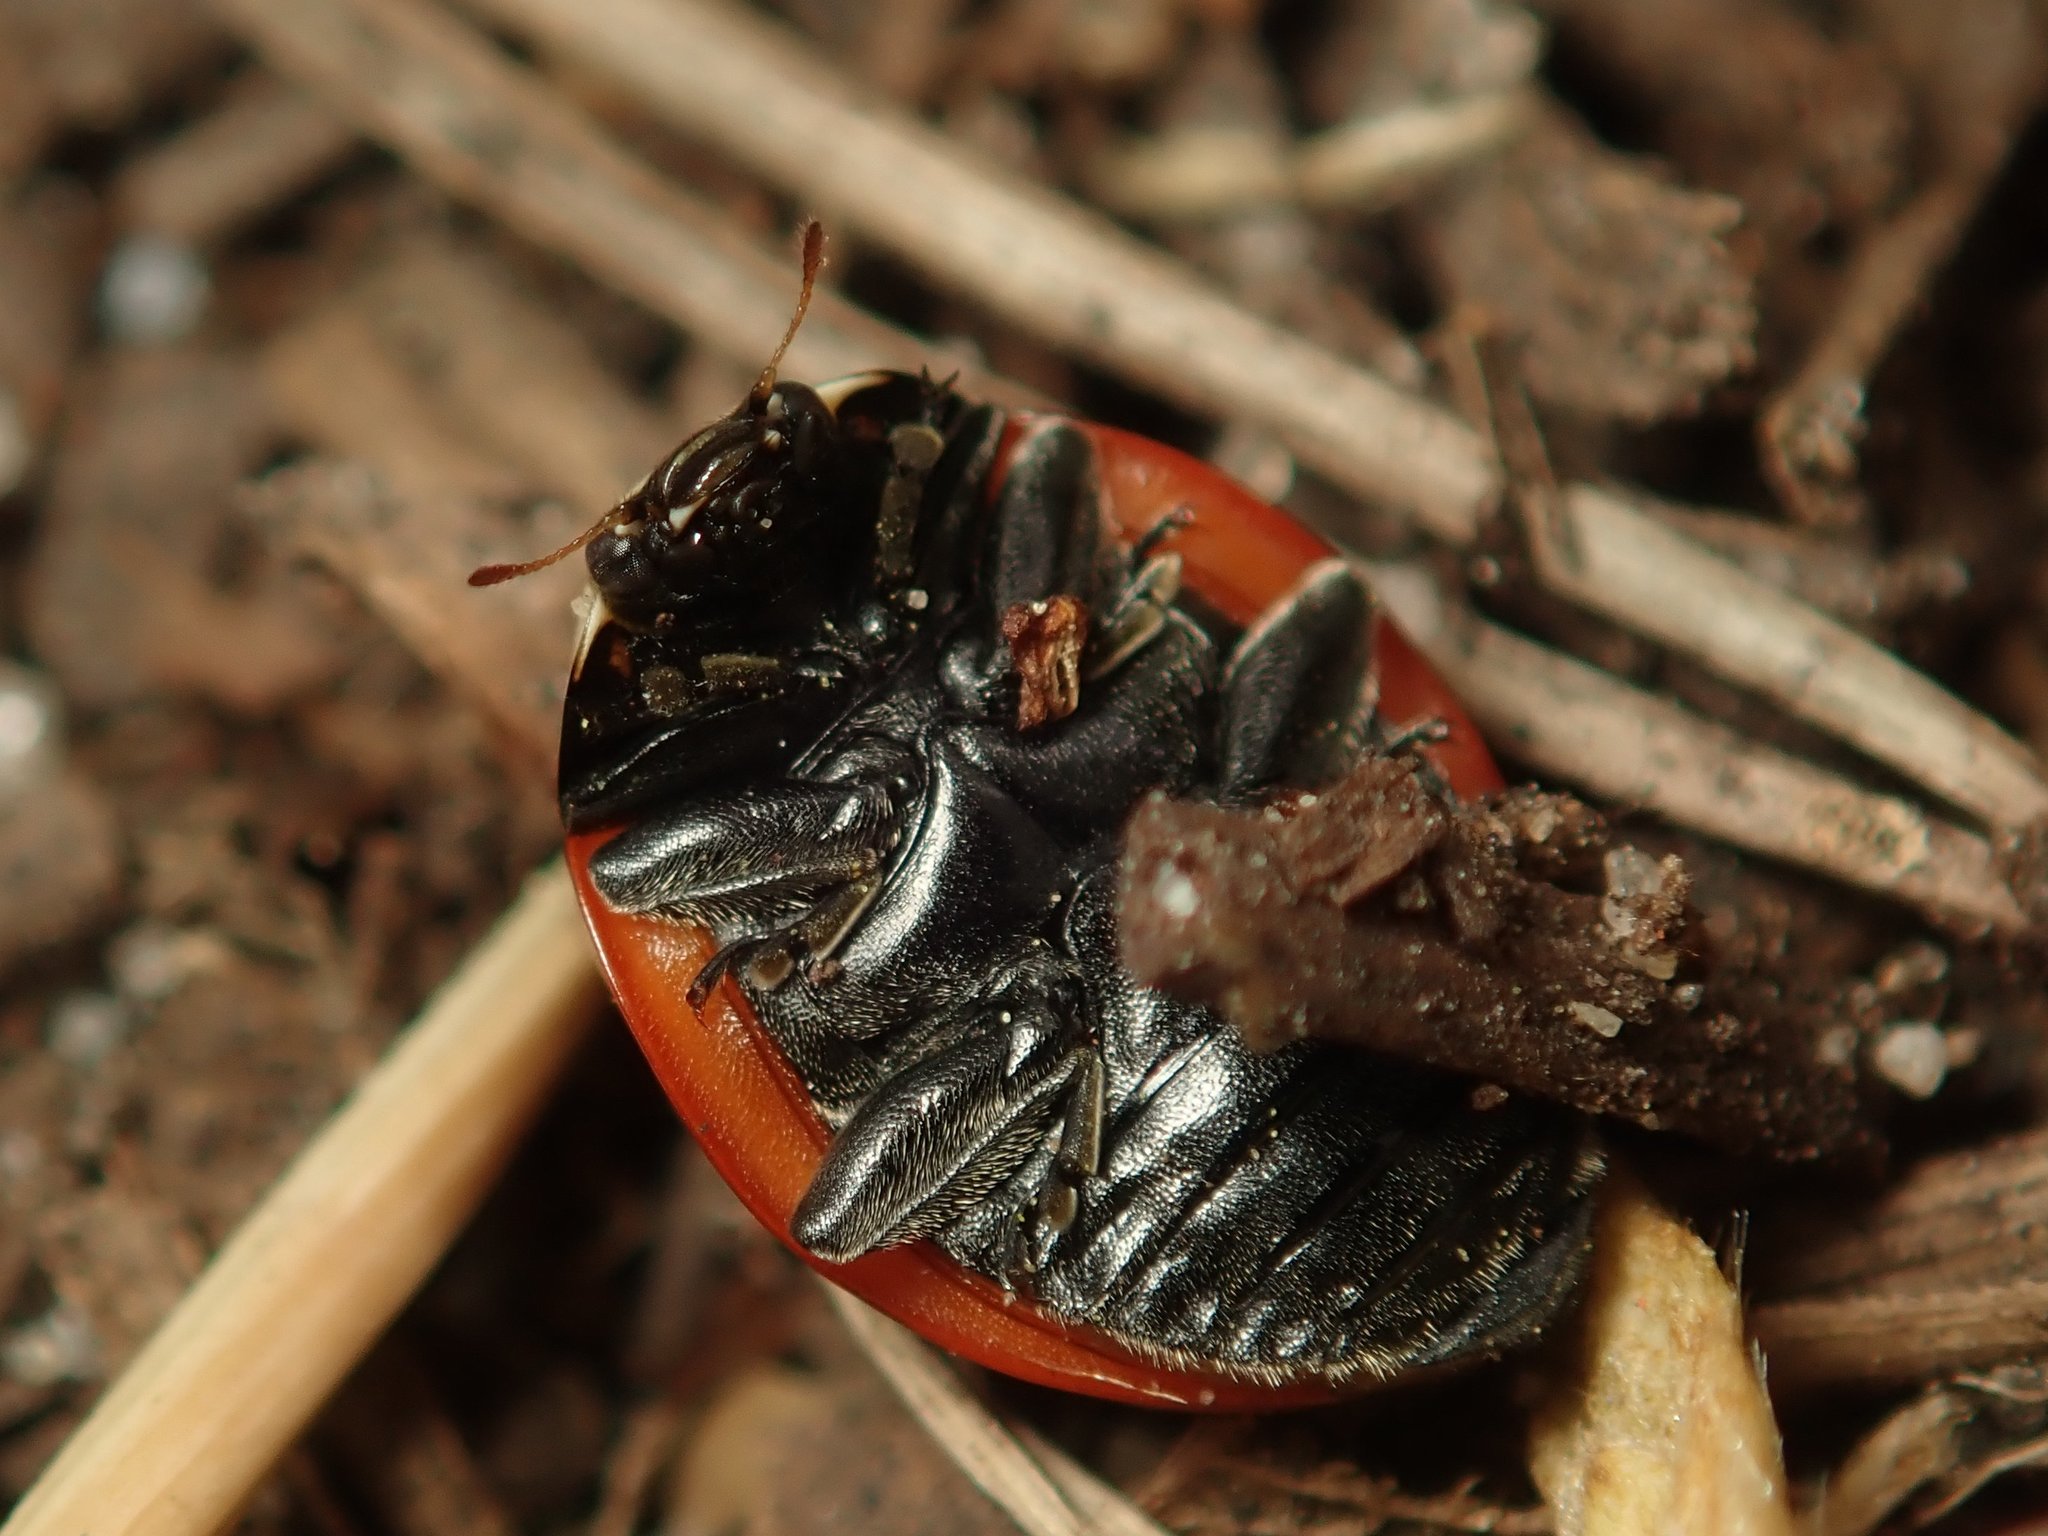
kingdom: Animalia
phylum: Arthropoda
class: Insecta
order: Coleoptera
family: Coccinellidae
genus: Coccinella
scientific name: Coccinella septempunctata
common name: Sevenspotted lady beetle
